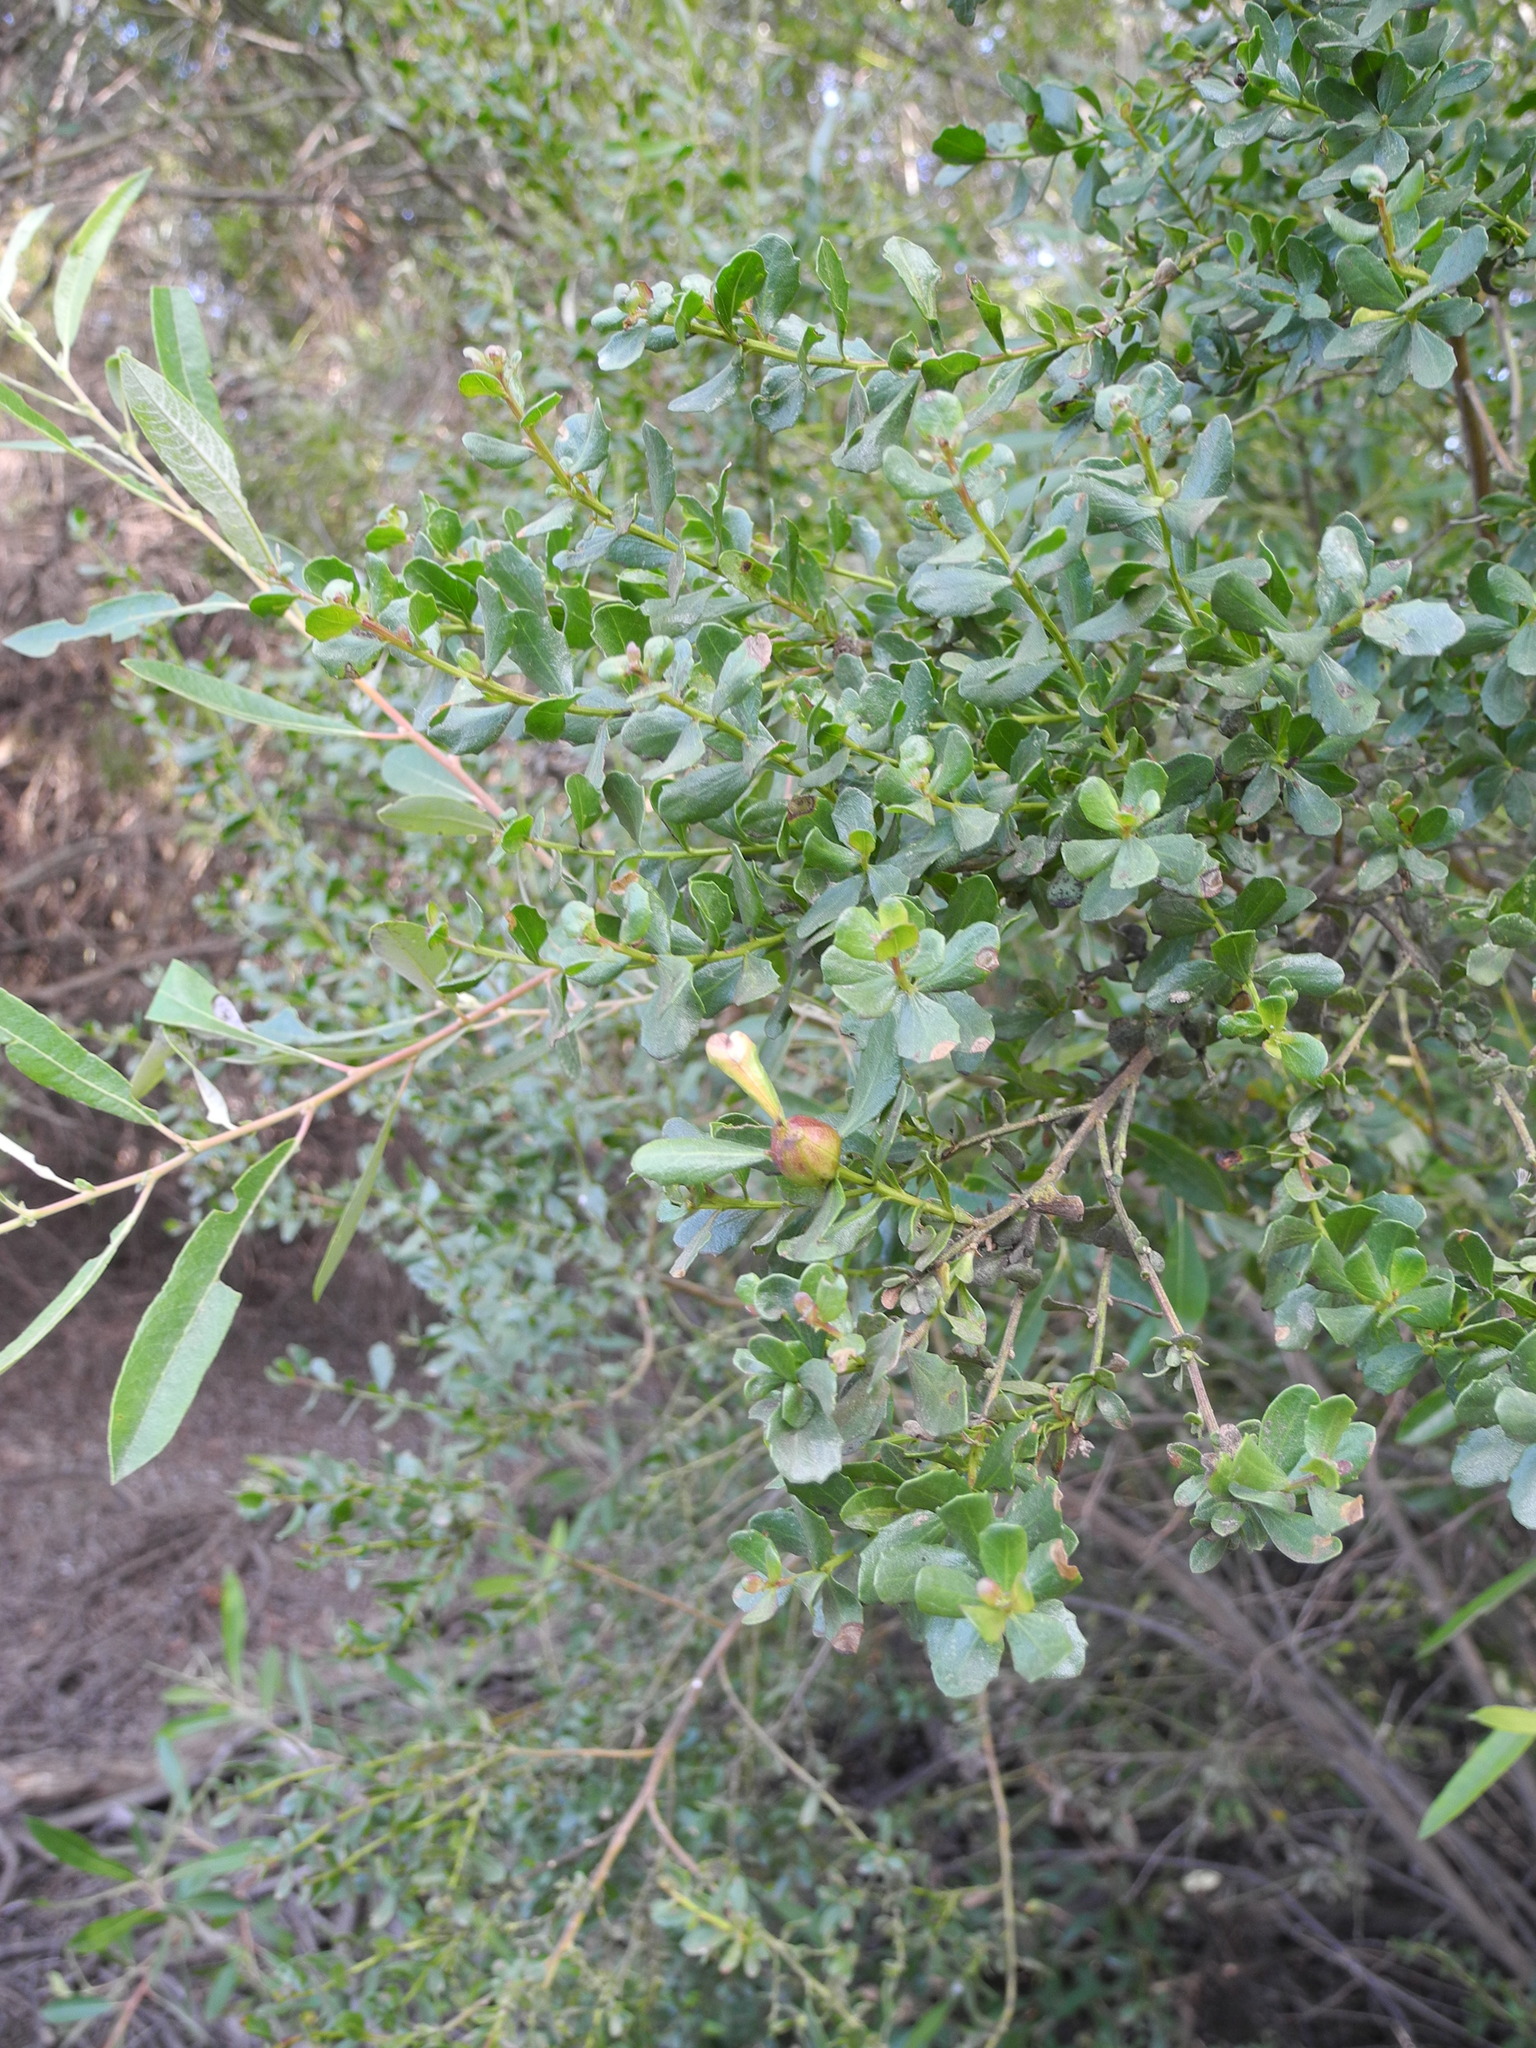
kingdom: Plantae
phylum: Tracheophyta
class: Magnoliopsida
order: Asterales
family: Asteraceae
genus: Baccharis
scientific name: Baccharis pilularis
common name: Coyotebrush
